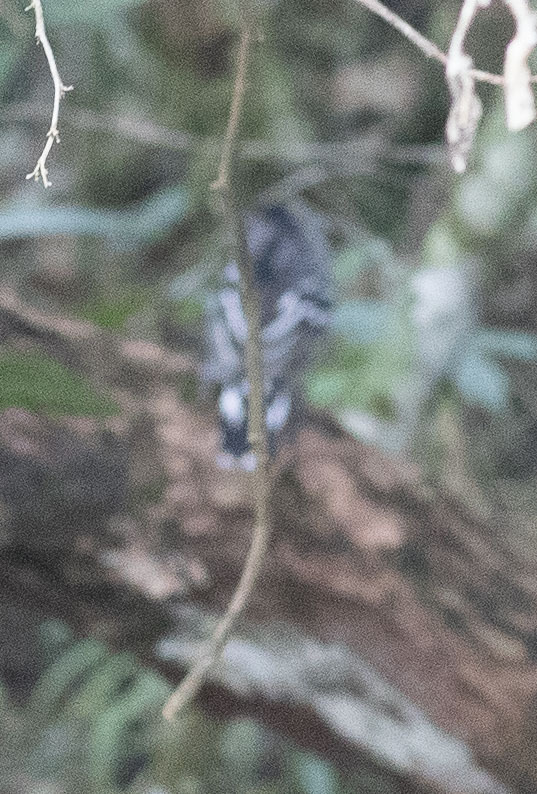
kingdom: Animalia
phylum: Chordata
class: Aves
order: Passeriformes
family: Thamnophilidae
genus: Thamnophilus
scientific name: Thamnophilus pelzelni
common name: Planalto slaty-antshrike
